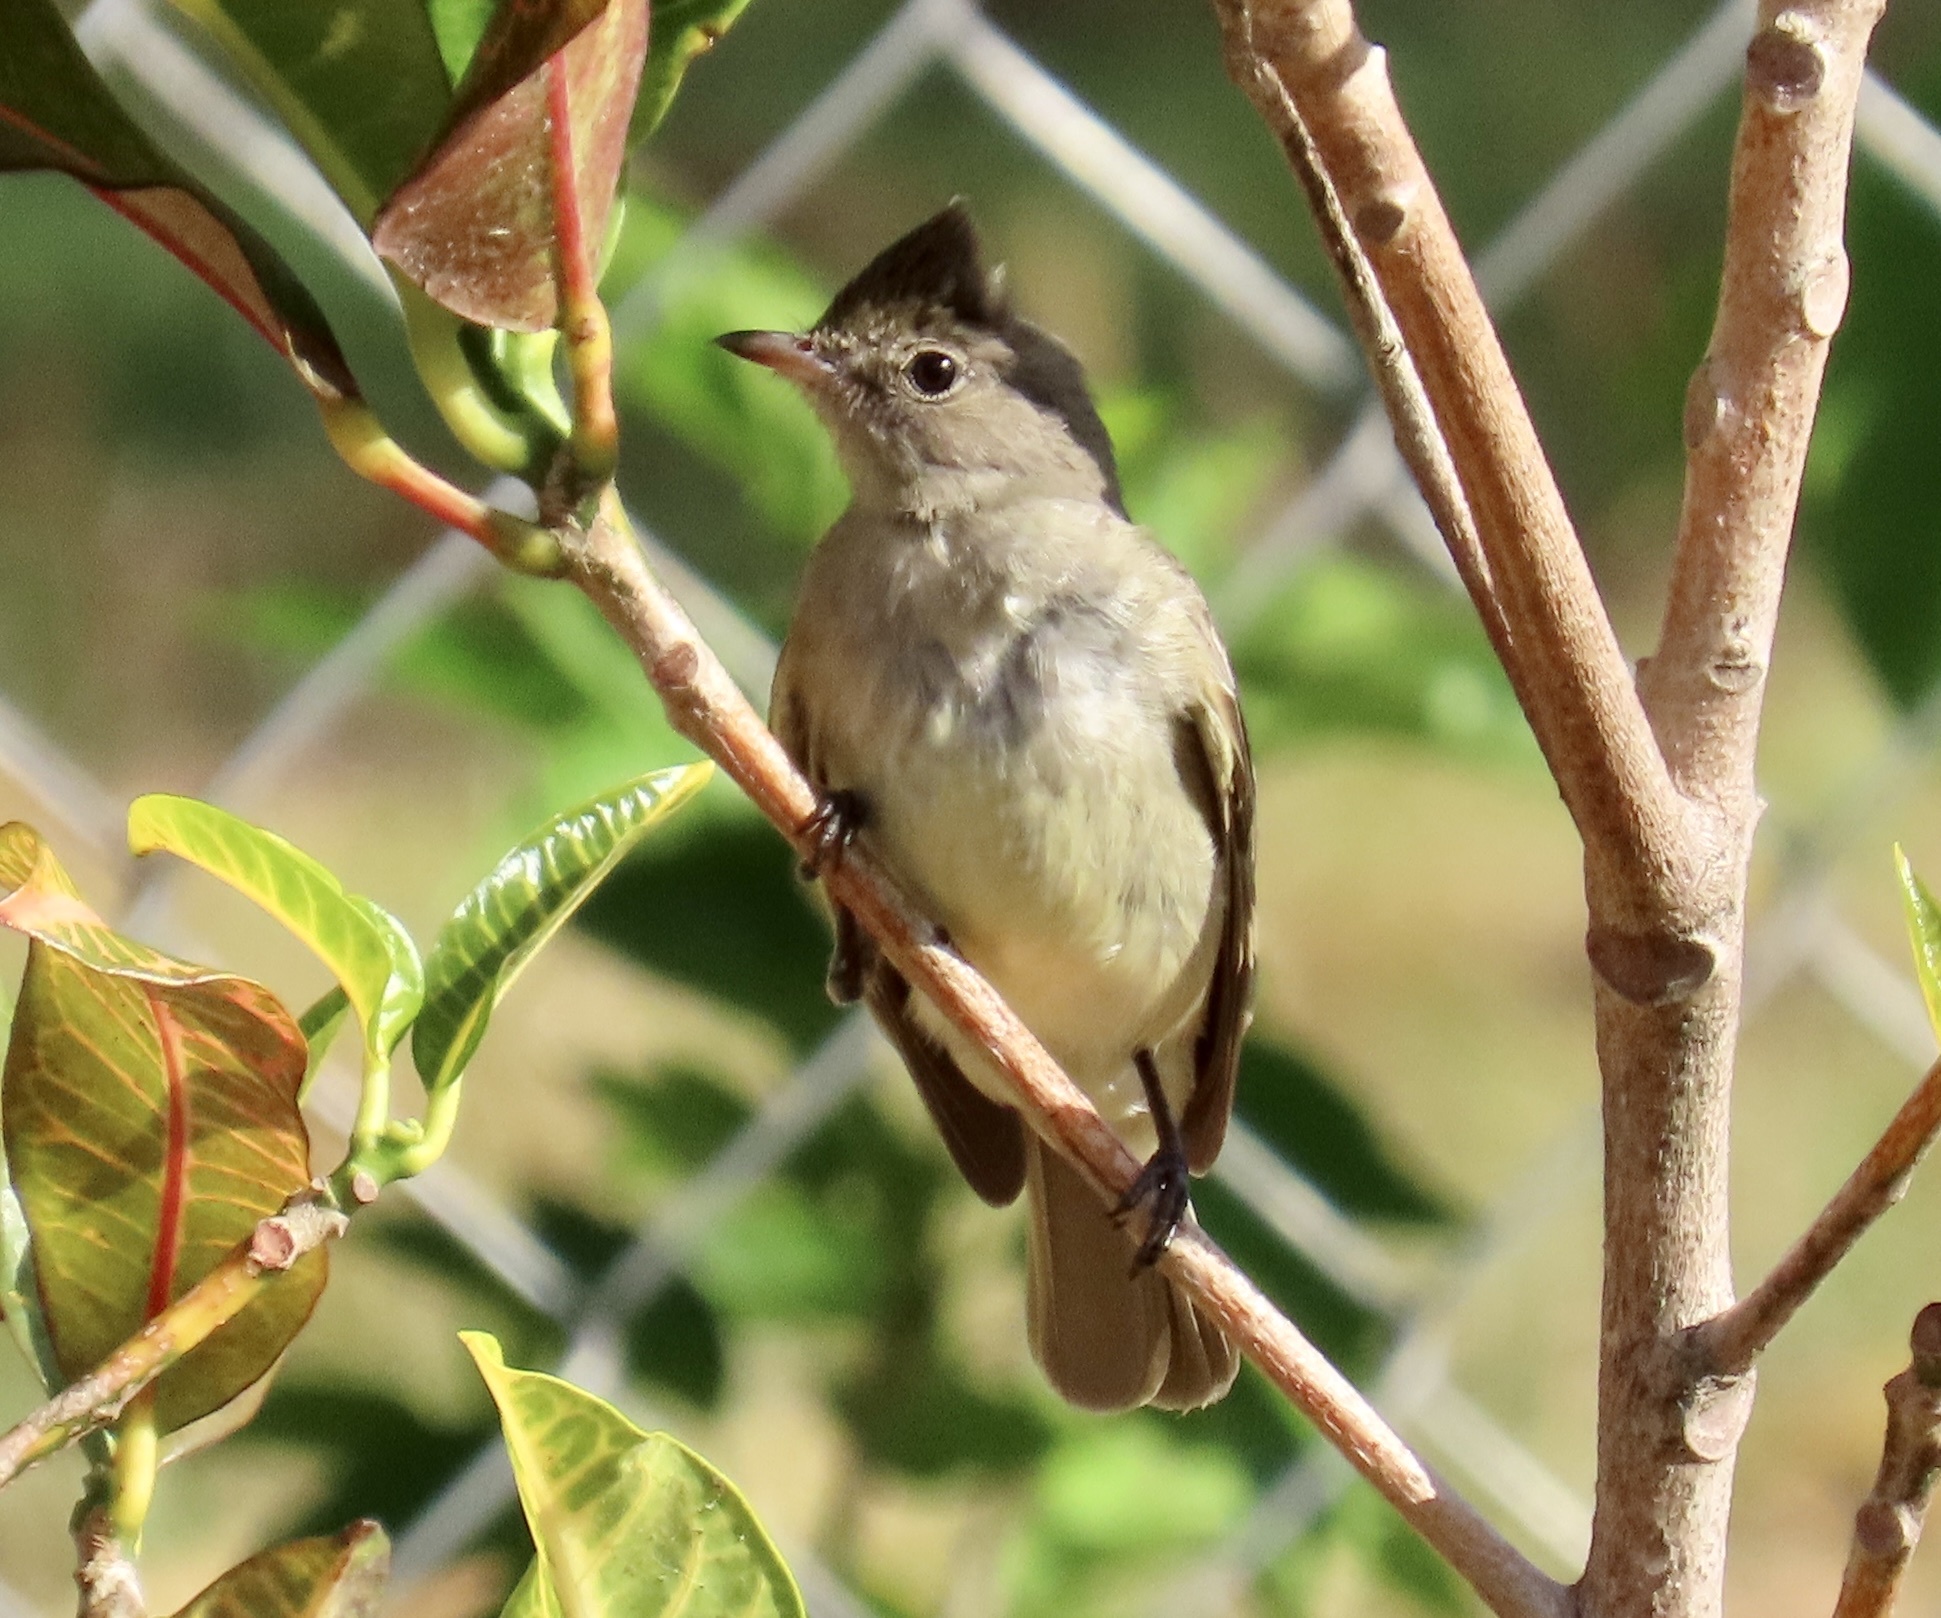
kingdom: Animalia
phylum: Chordata
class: Aves
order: Passeriformes
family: Tyrannidae
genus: Elaenia
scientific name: Elaenia chiriquensis
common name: Lesser elaenia
